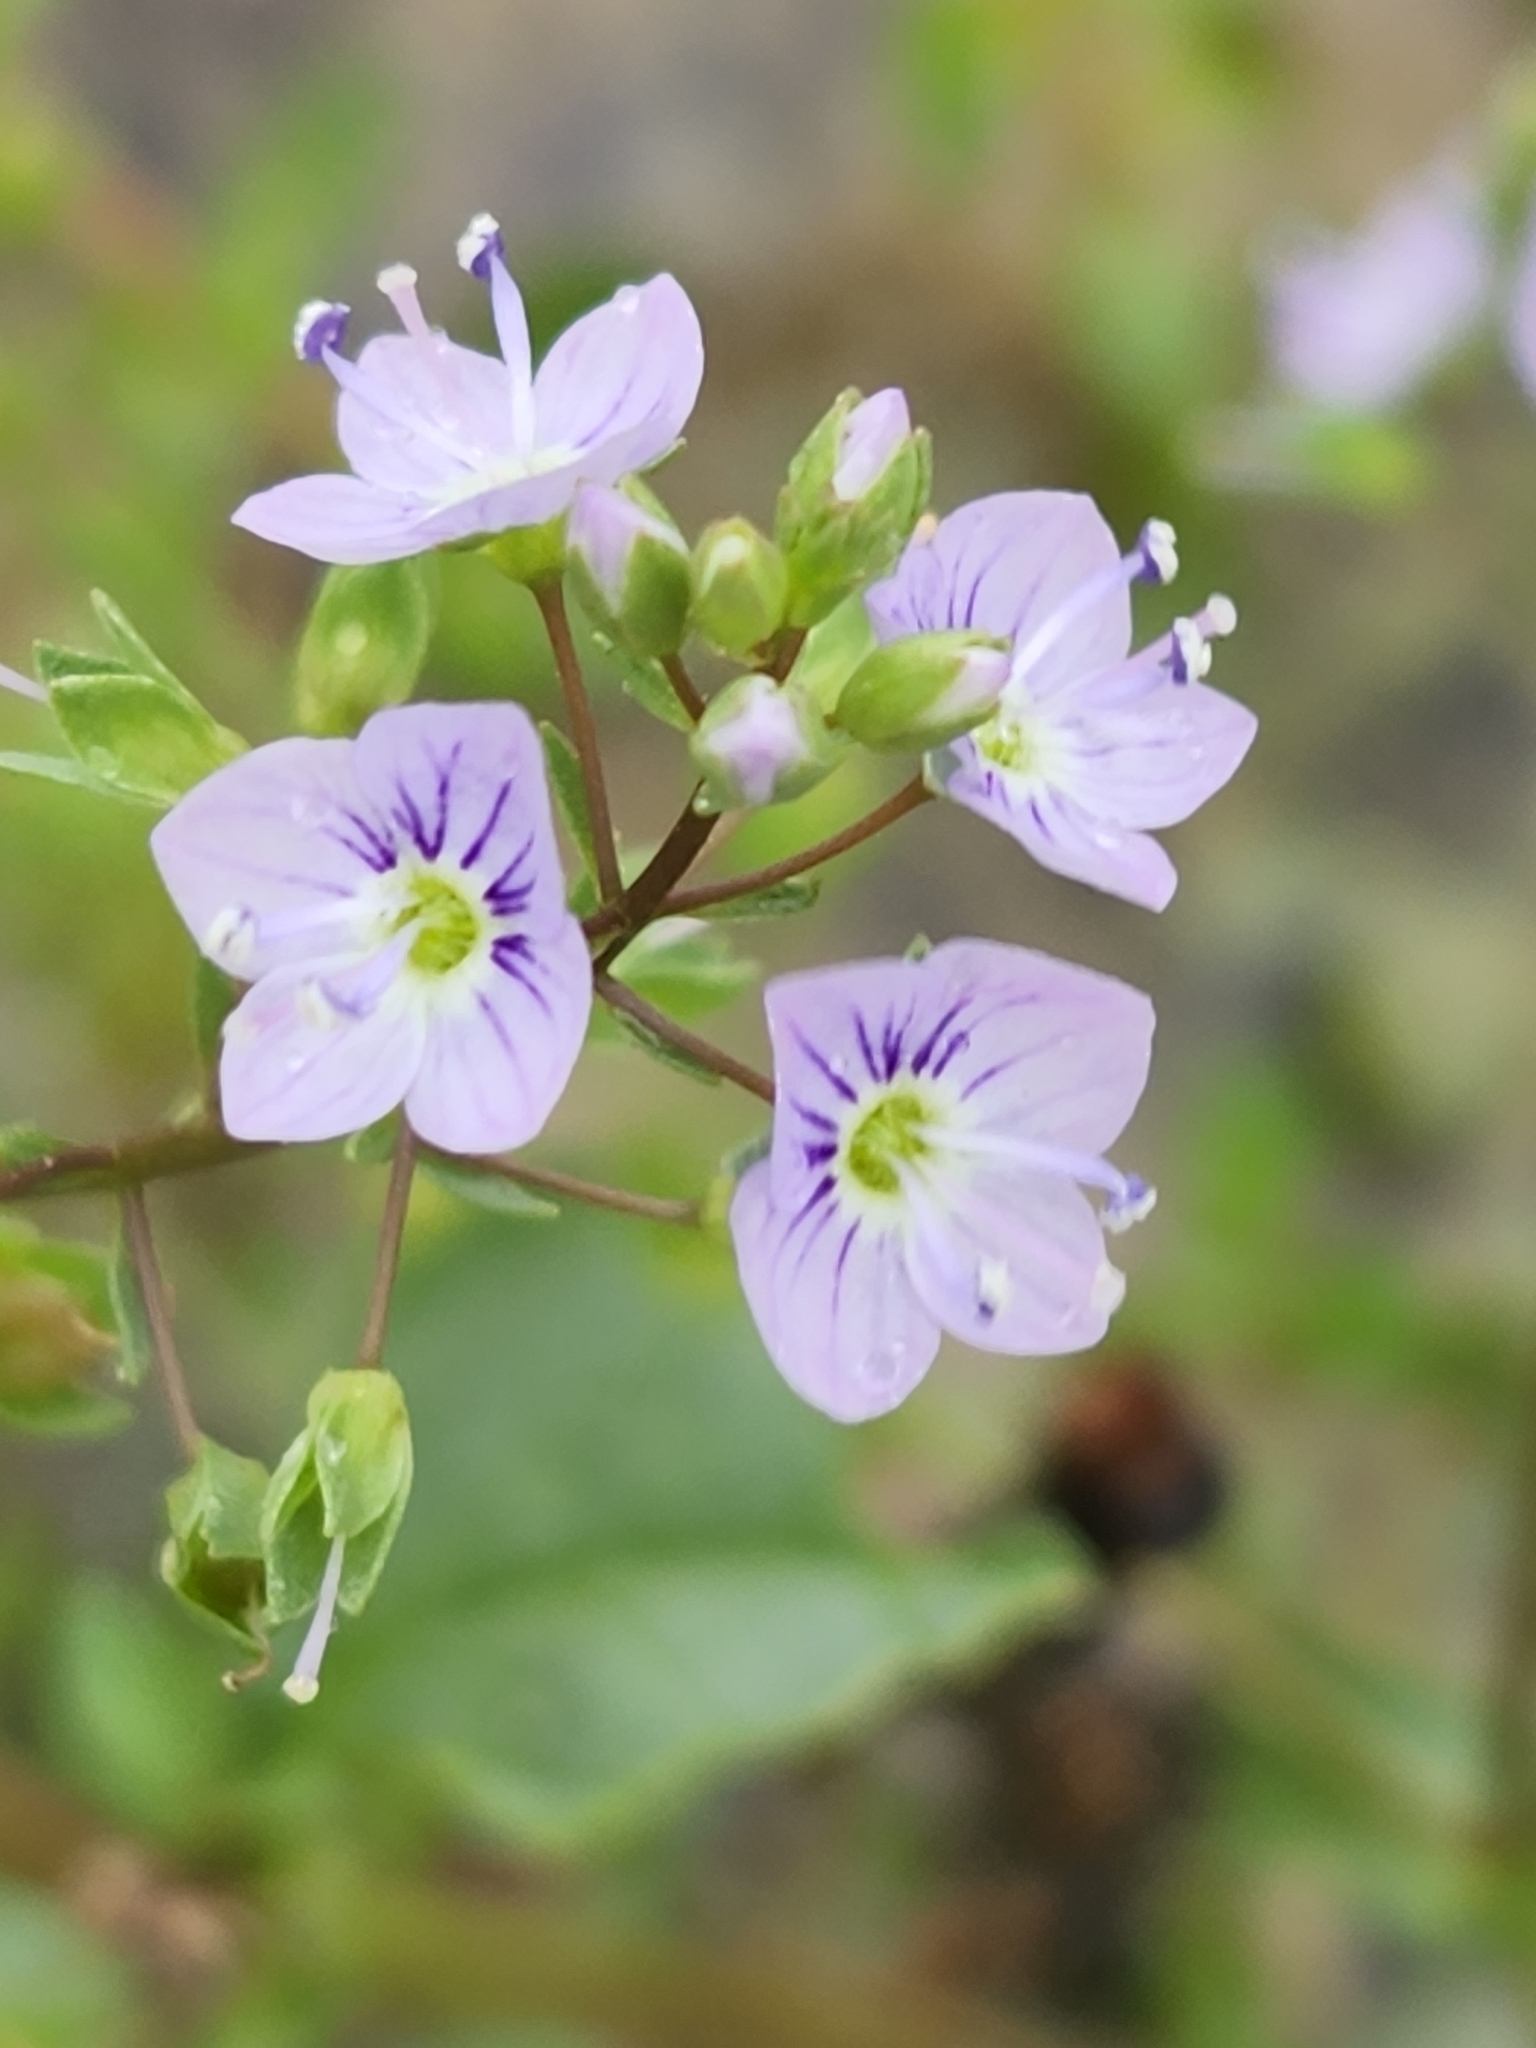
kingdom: Plantae
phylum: Tracheophyta
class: Magnoliopsida
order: Lamiales
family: Plantaginaceae
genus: Veronica
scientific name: Veronica anagallis-aquatica
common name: Water speedwell
